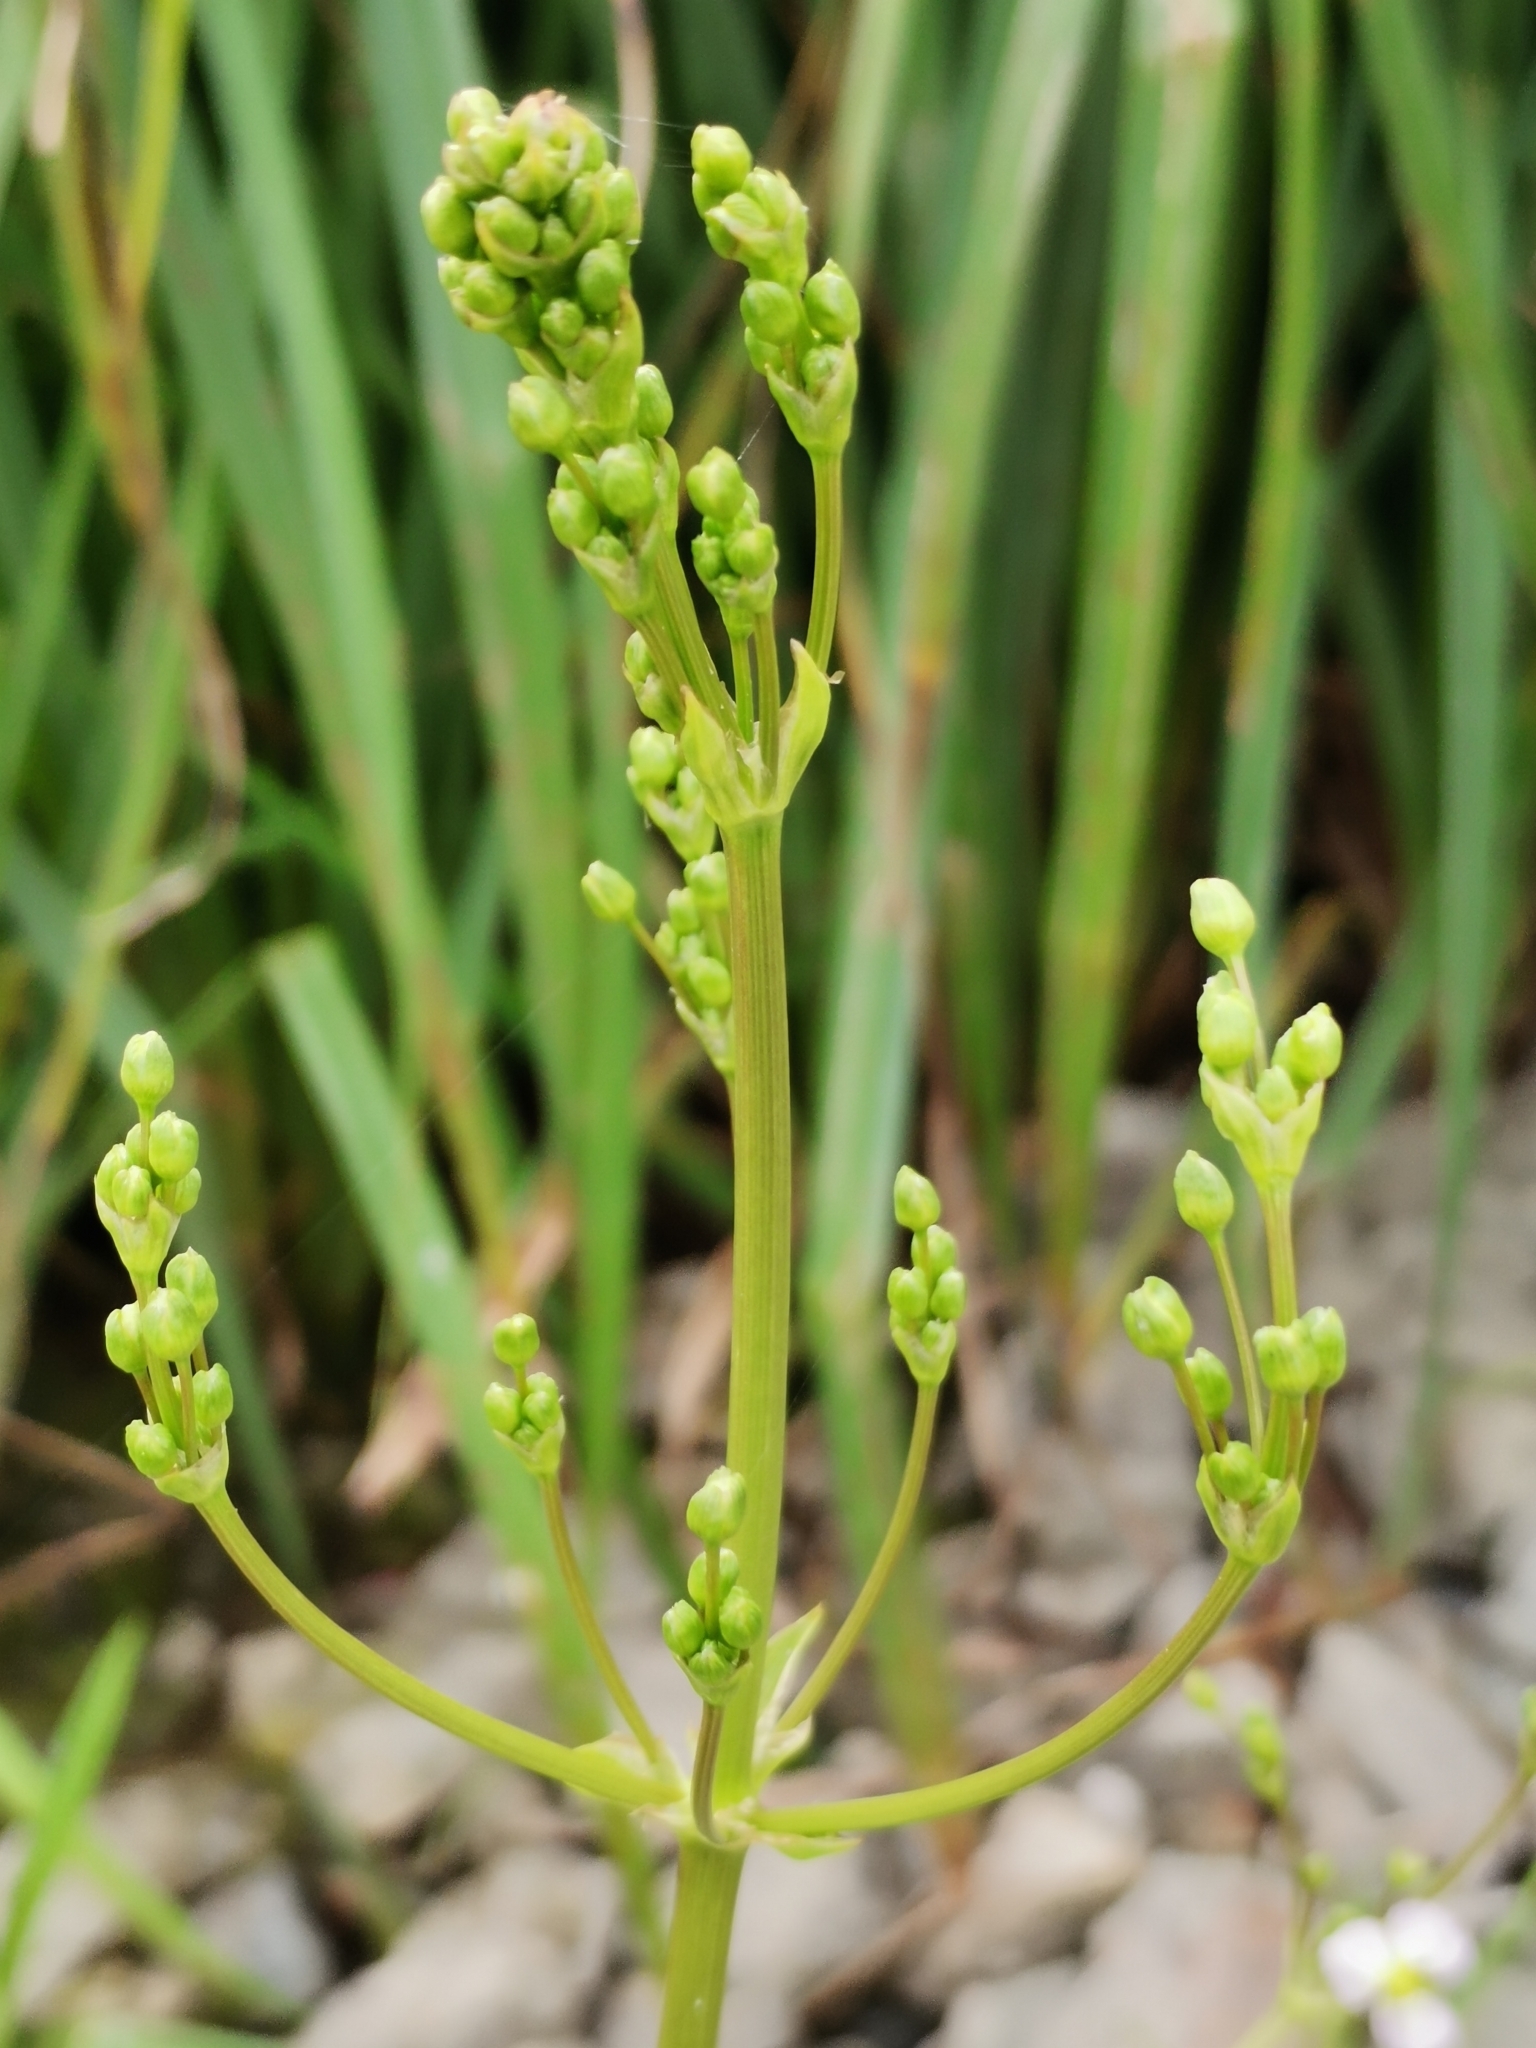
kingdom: Plantae
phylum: Tracheophyta
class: Liliopsida
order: Alismatales
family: Alismataceae
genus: Alisma
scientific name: Alisma plantago-aquatica
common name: Water-plantain
